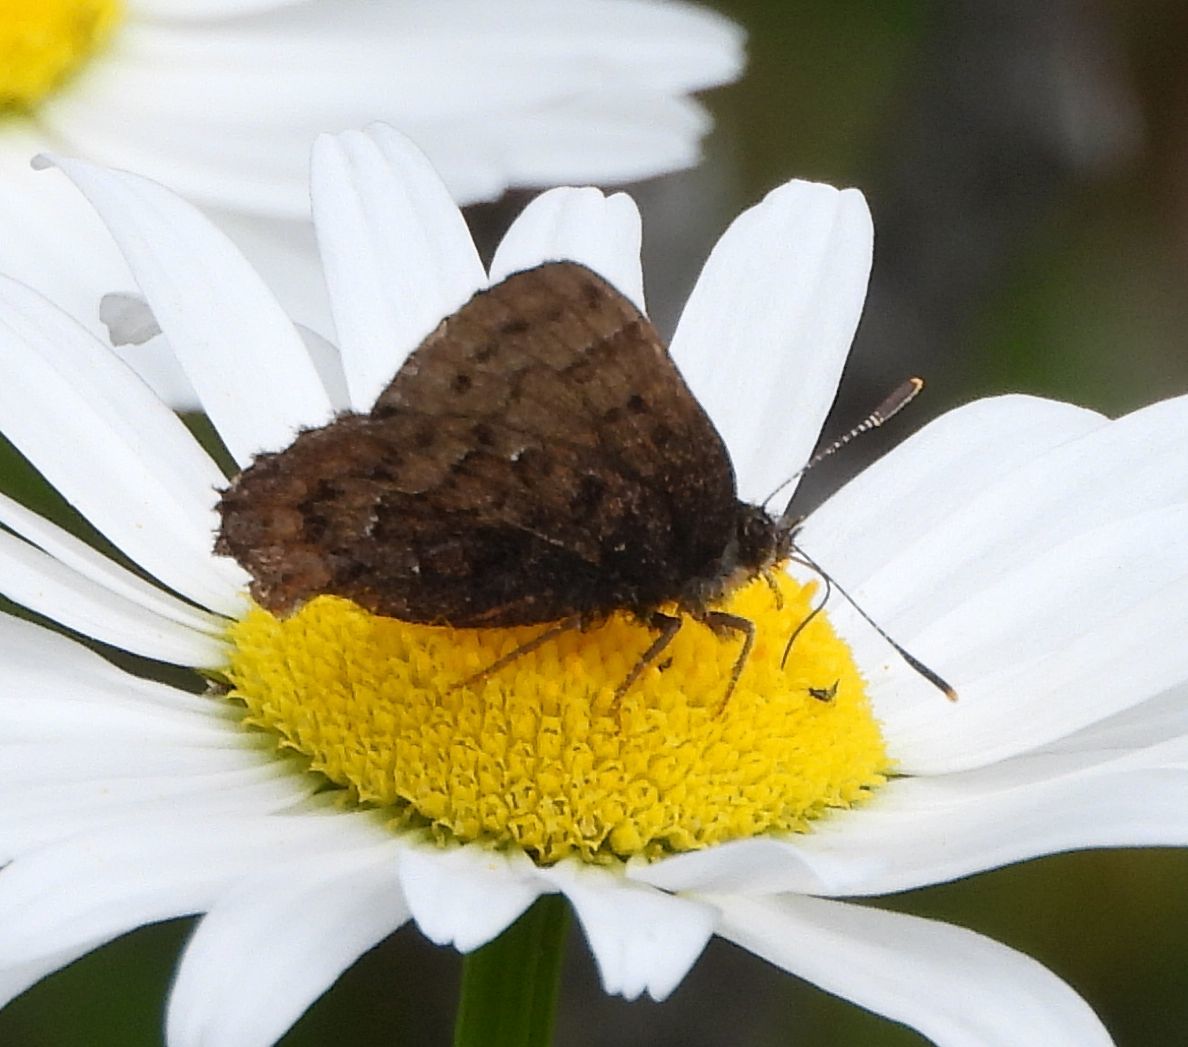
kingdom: Animalia
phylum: Arthropoda
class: Insecta
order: Lepidoptera
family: Lycaenidae
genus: Incisalia
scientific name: Incisalia niphon
